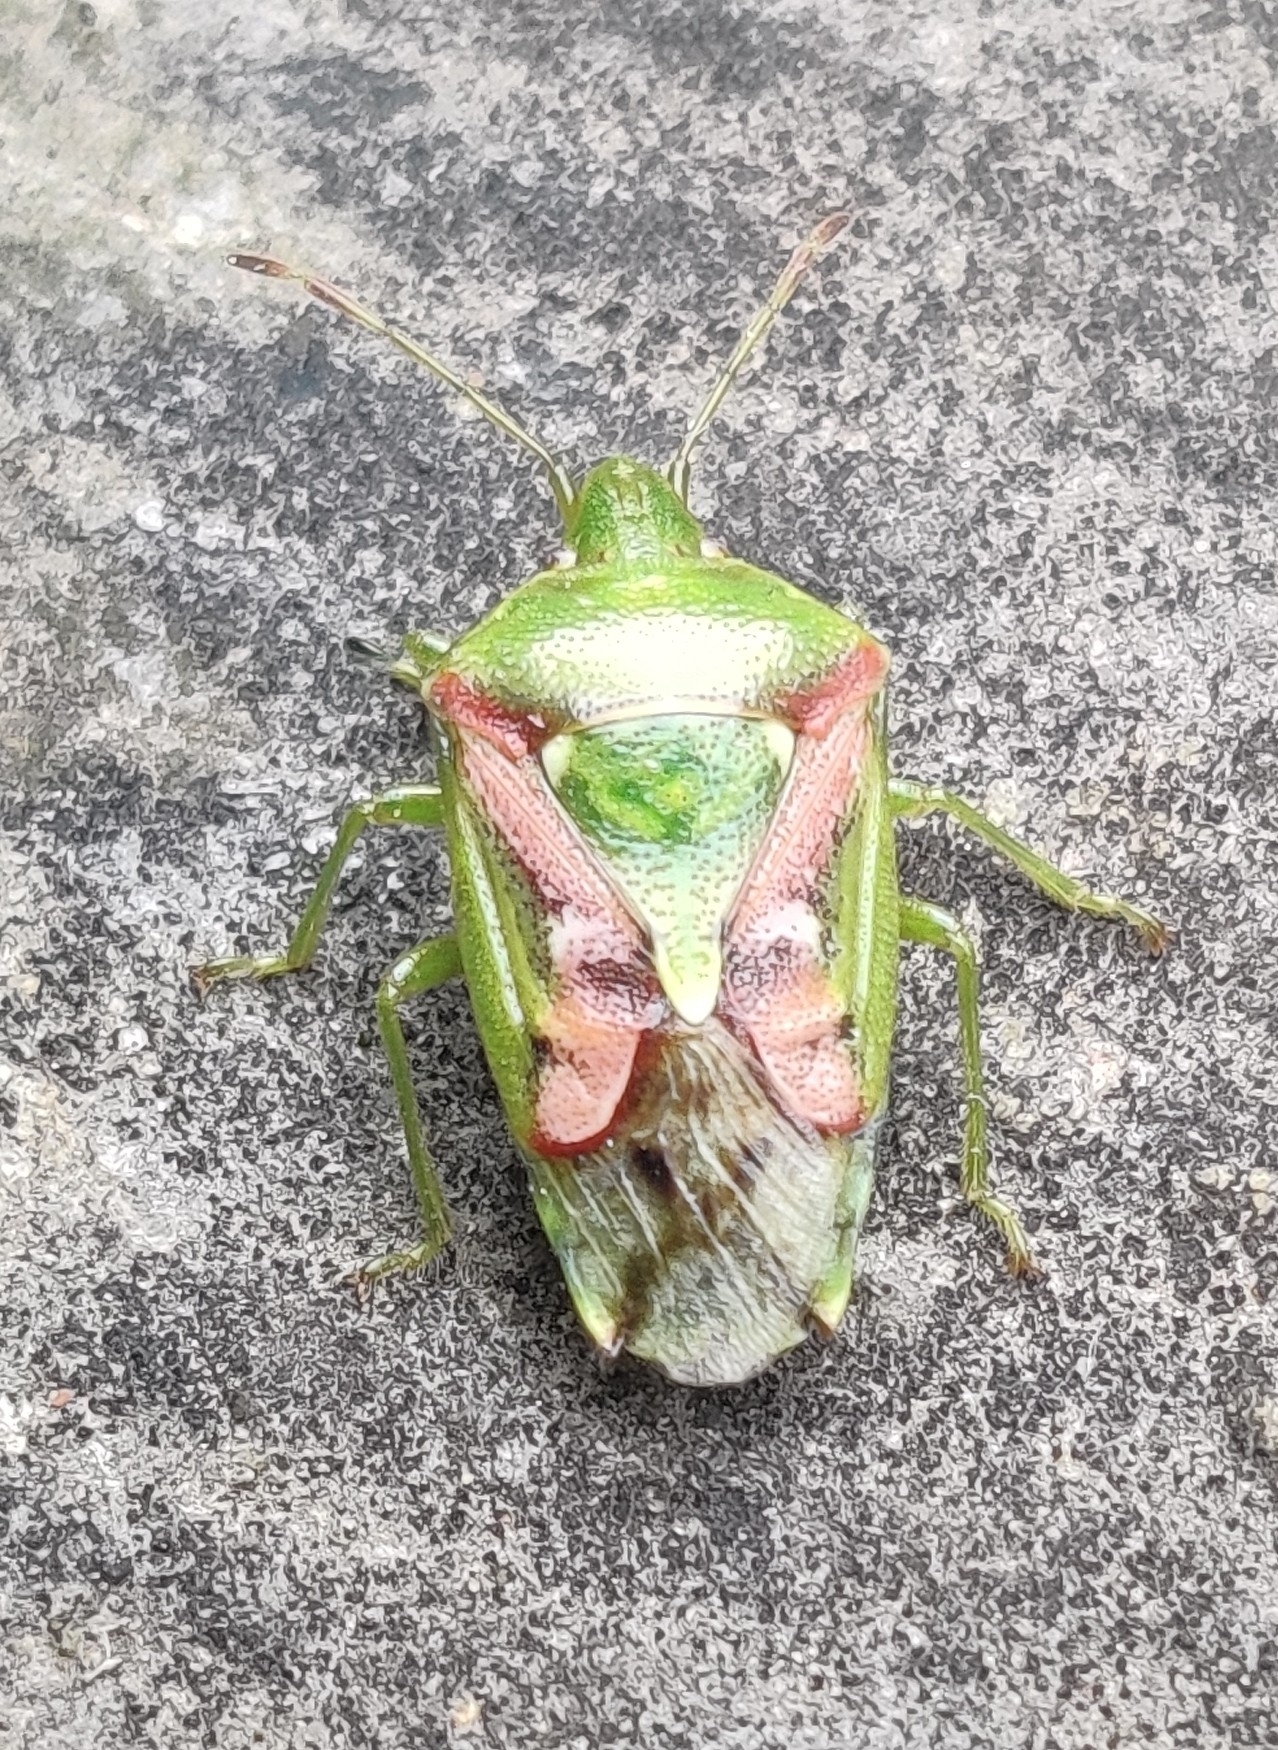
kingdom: Animalia
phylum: Arthropoda
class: Insecta
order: Hemiptera
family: Acanthosomatidae
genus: Cyphostethus
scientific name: Cyphostethus tristriatus
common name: Juniper shieldbug
